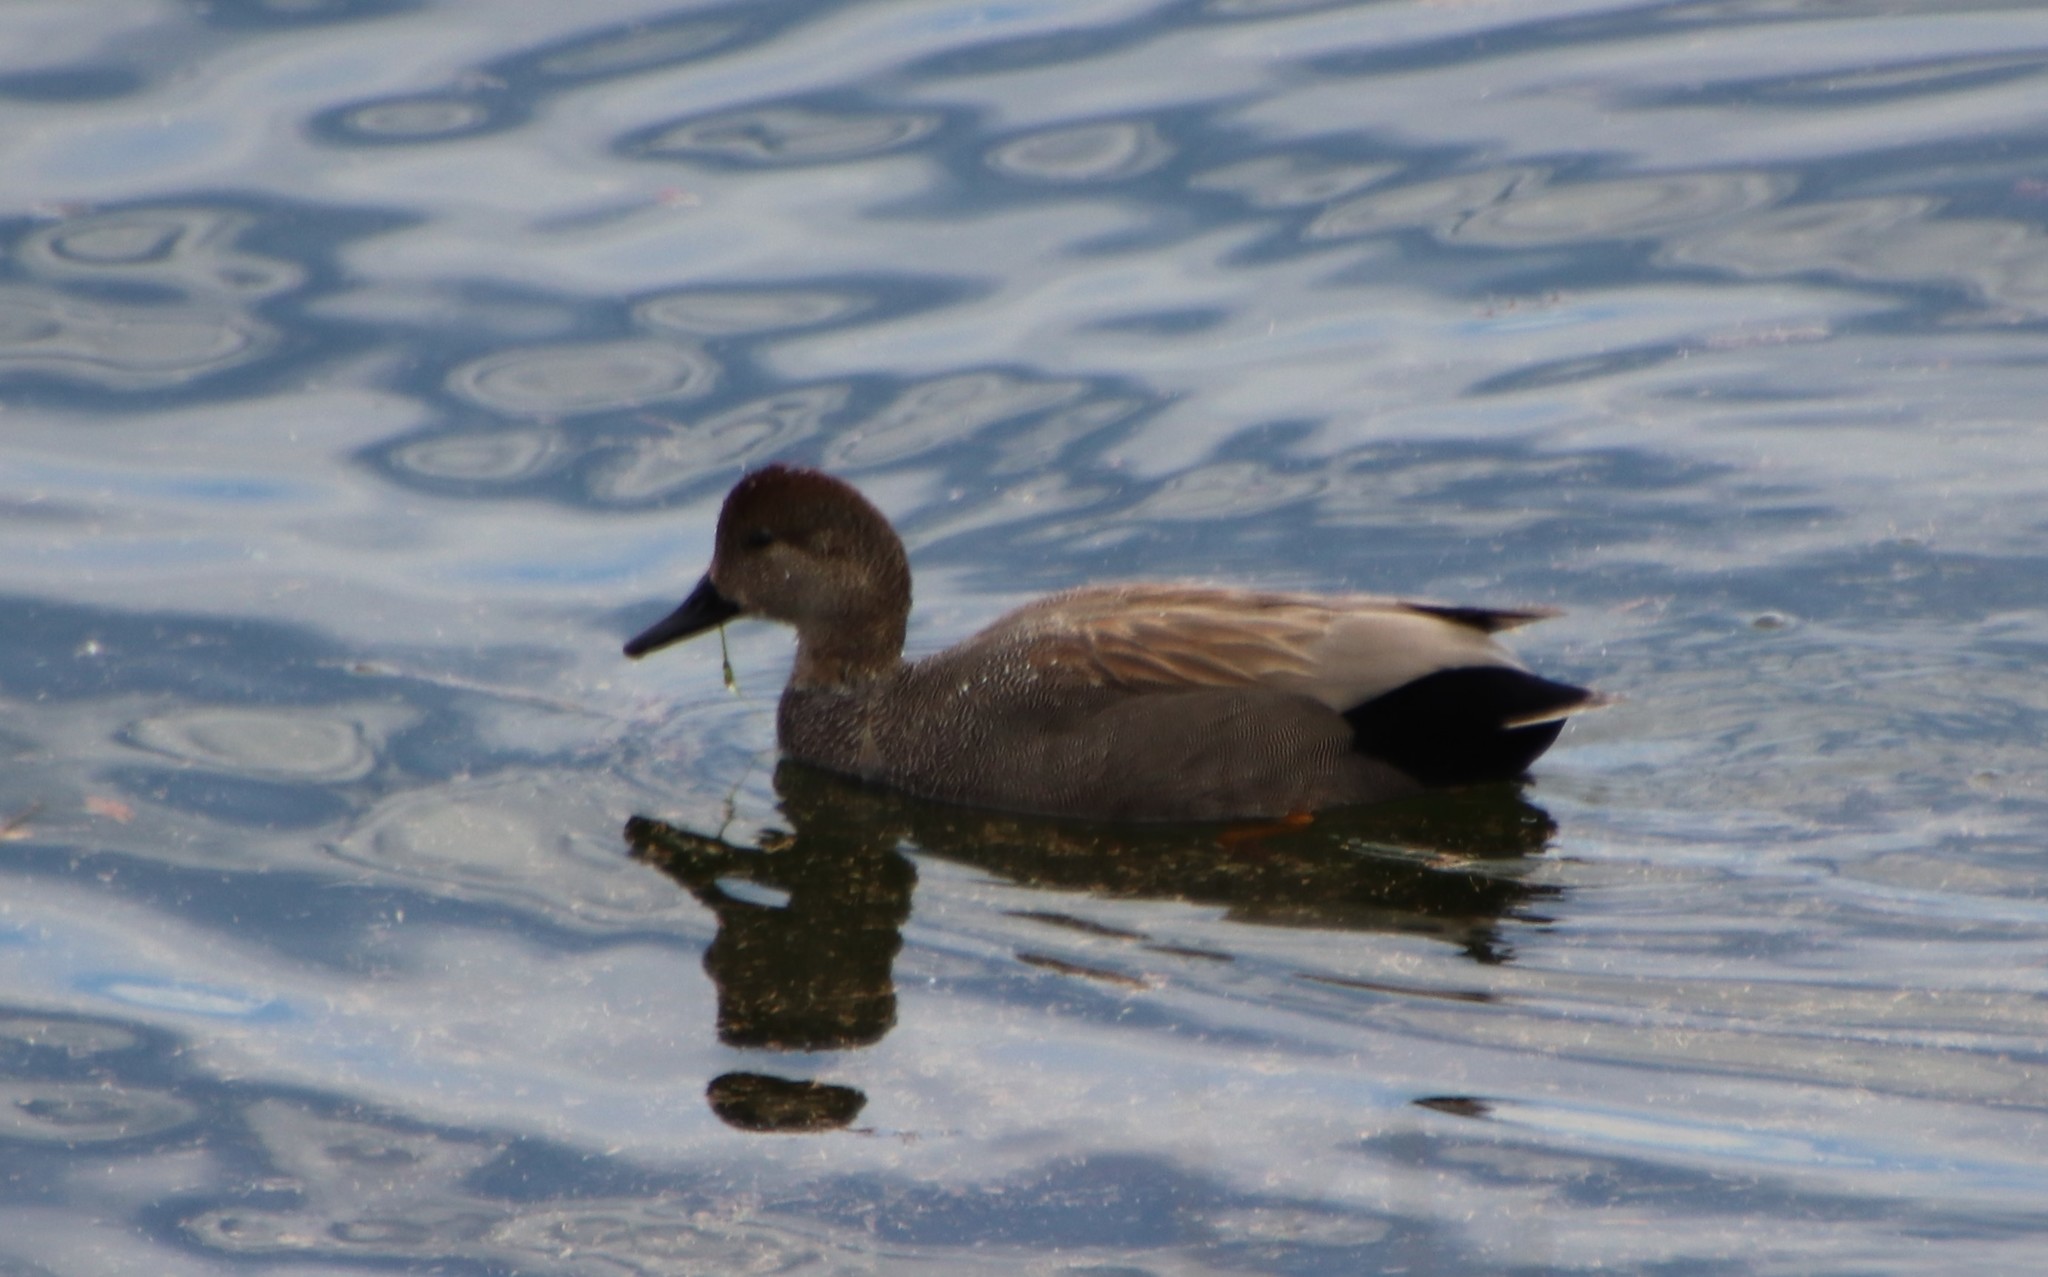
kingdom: Animalia
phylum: Chordata
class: Aves
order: Anseriformes
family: Anatidae
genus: Mareca
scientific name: Mareca strepera
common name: Gadwall
